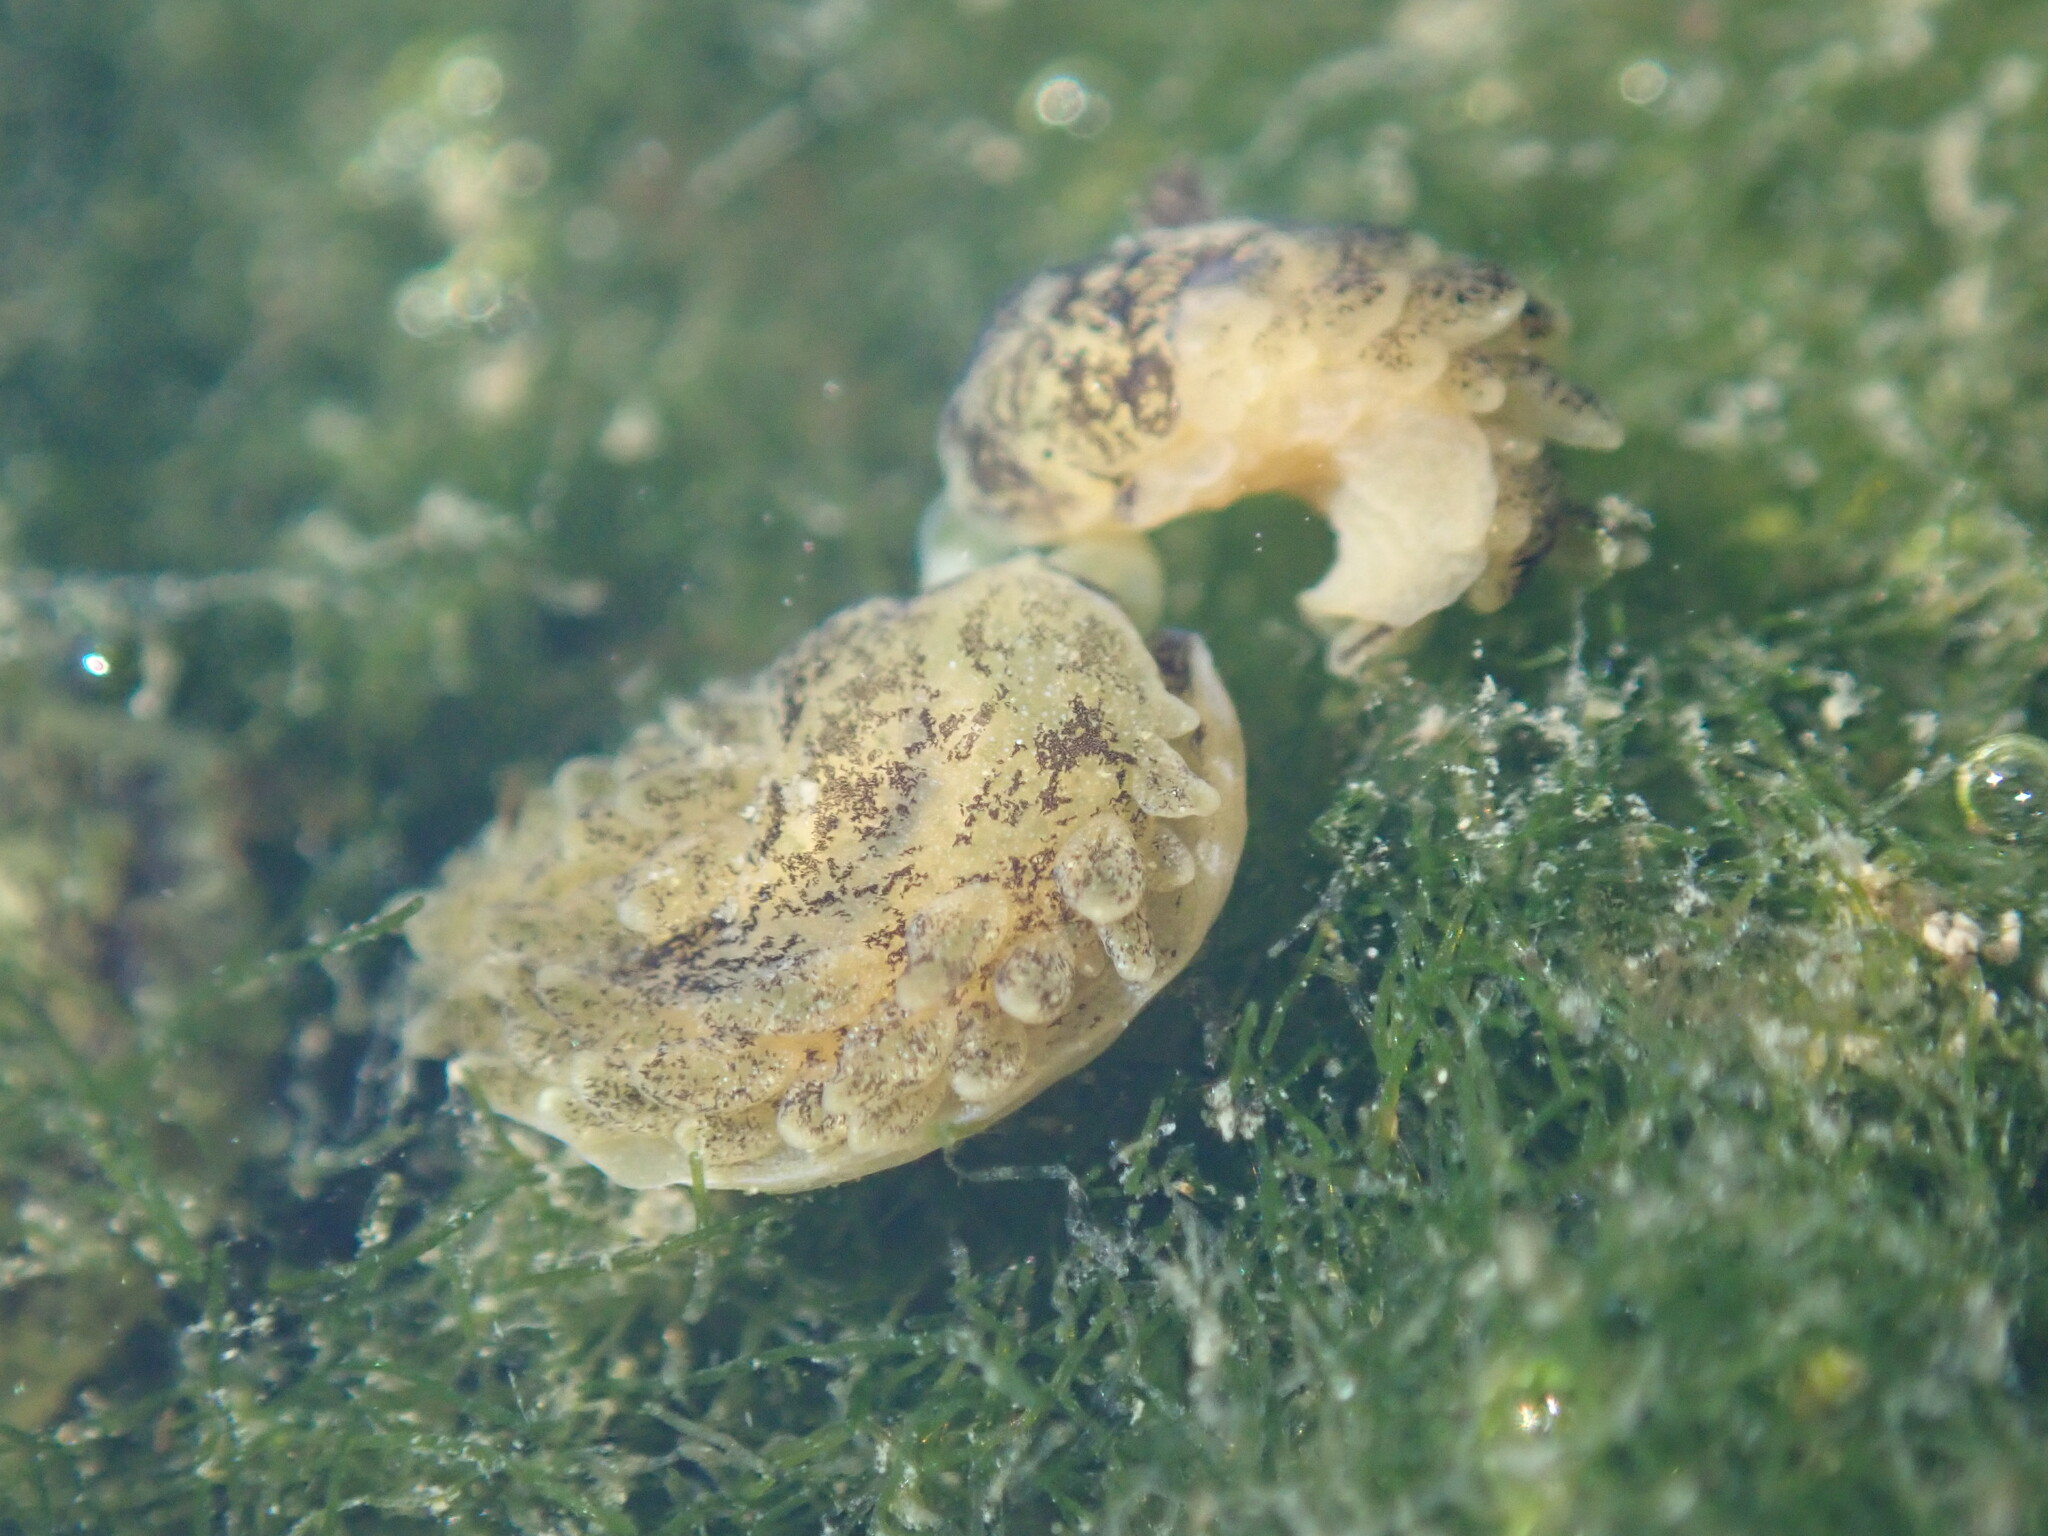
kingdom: Animalia
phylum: Mollusca
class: Gastropoda
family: Limapontiidae
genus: Alderia
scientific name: Alderia modesta
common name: Modest alderia
